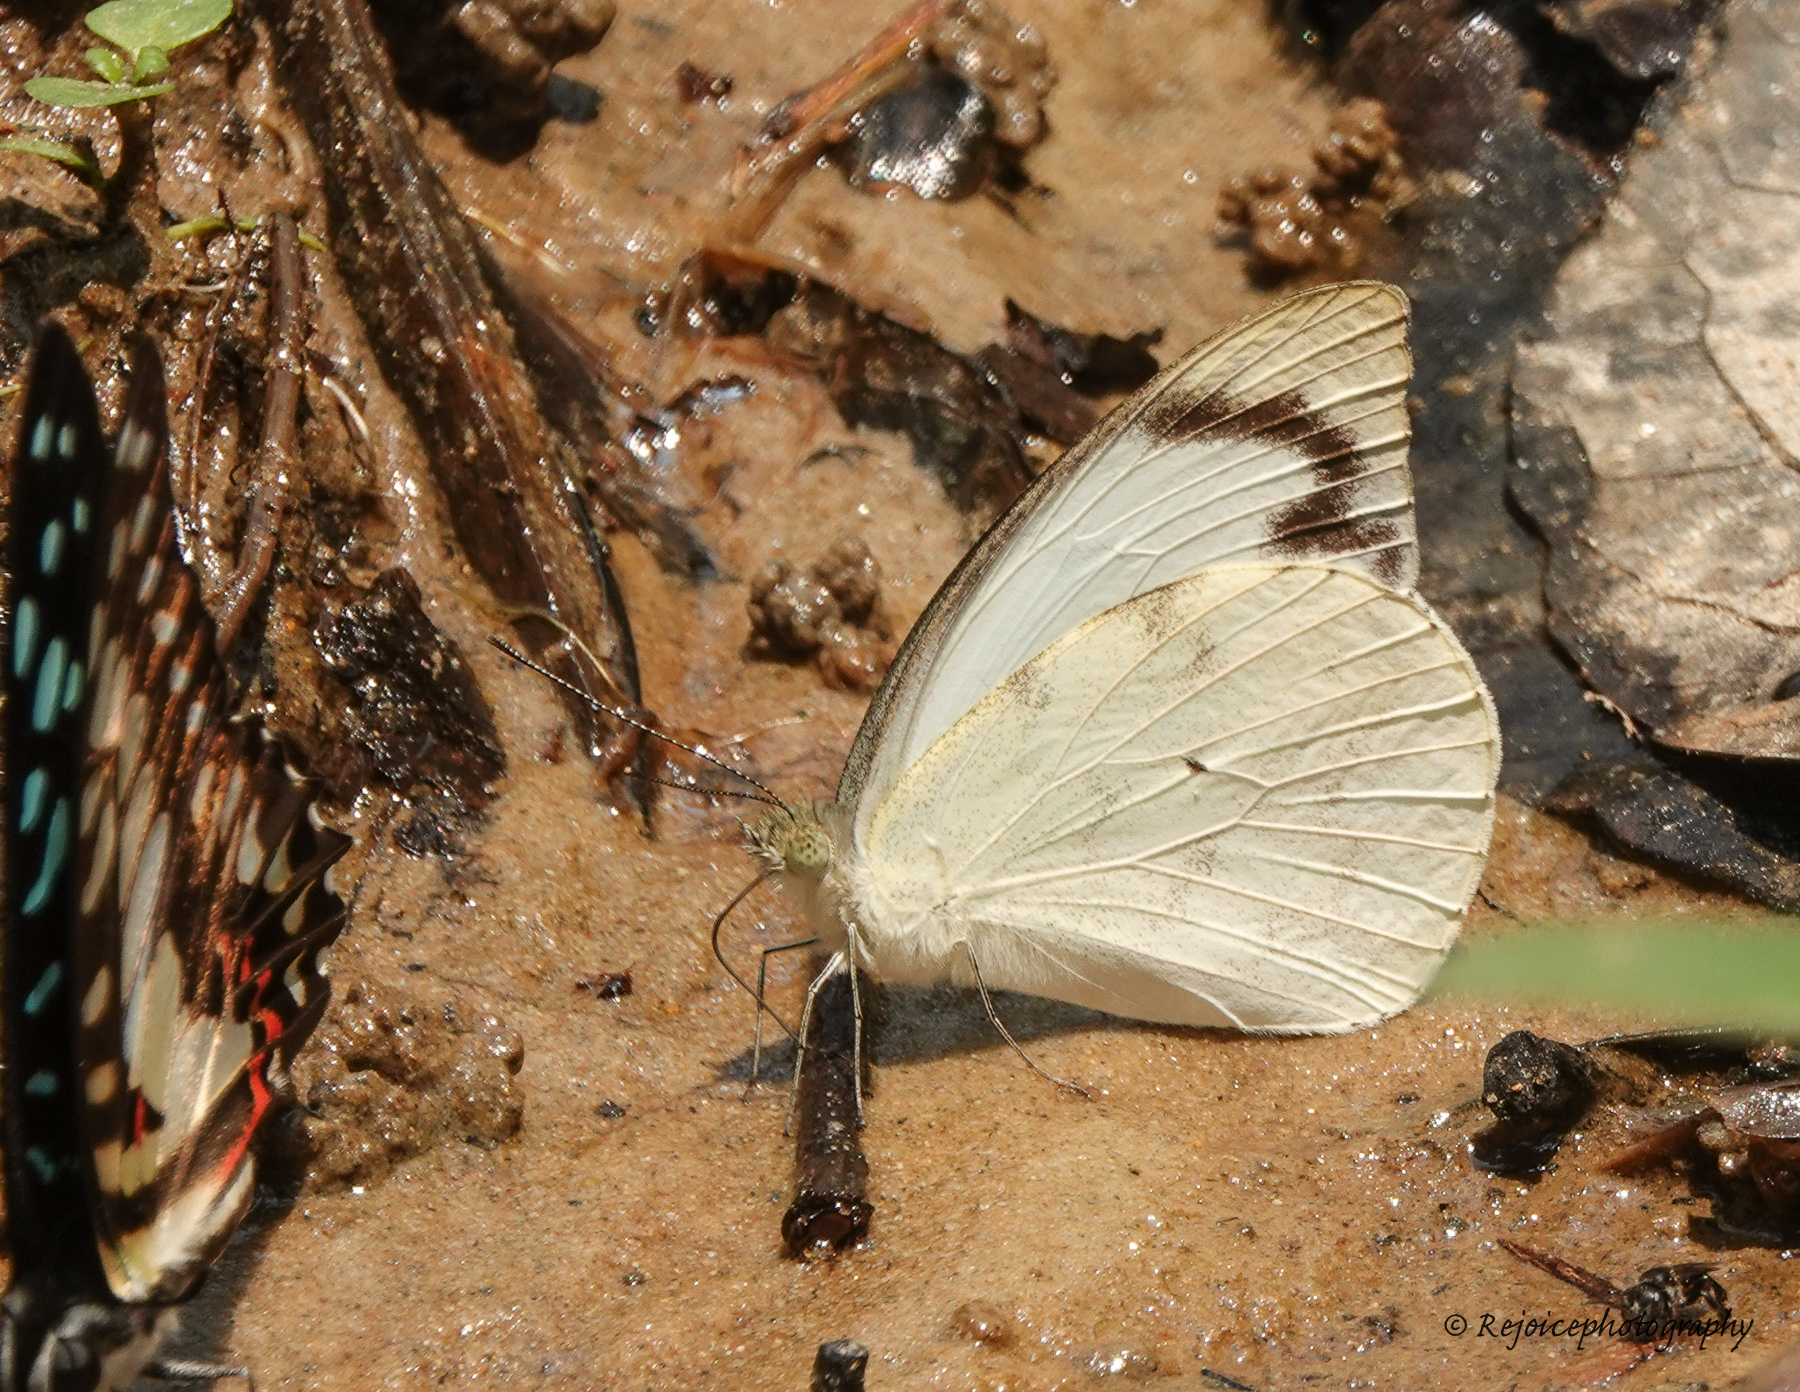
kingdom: Animalia
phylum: Arthropoda
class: Insecta
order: Lepidoptera
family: Pieridae
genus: Appias
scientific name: Appias indra
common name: Plain puffin
